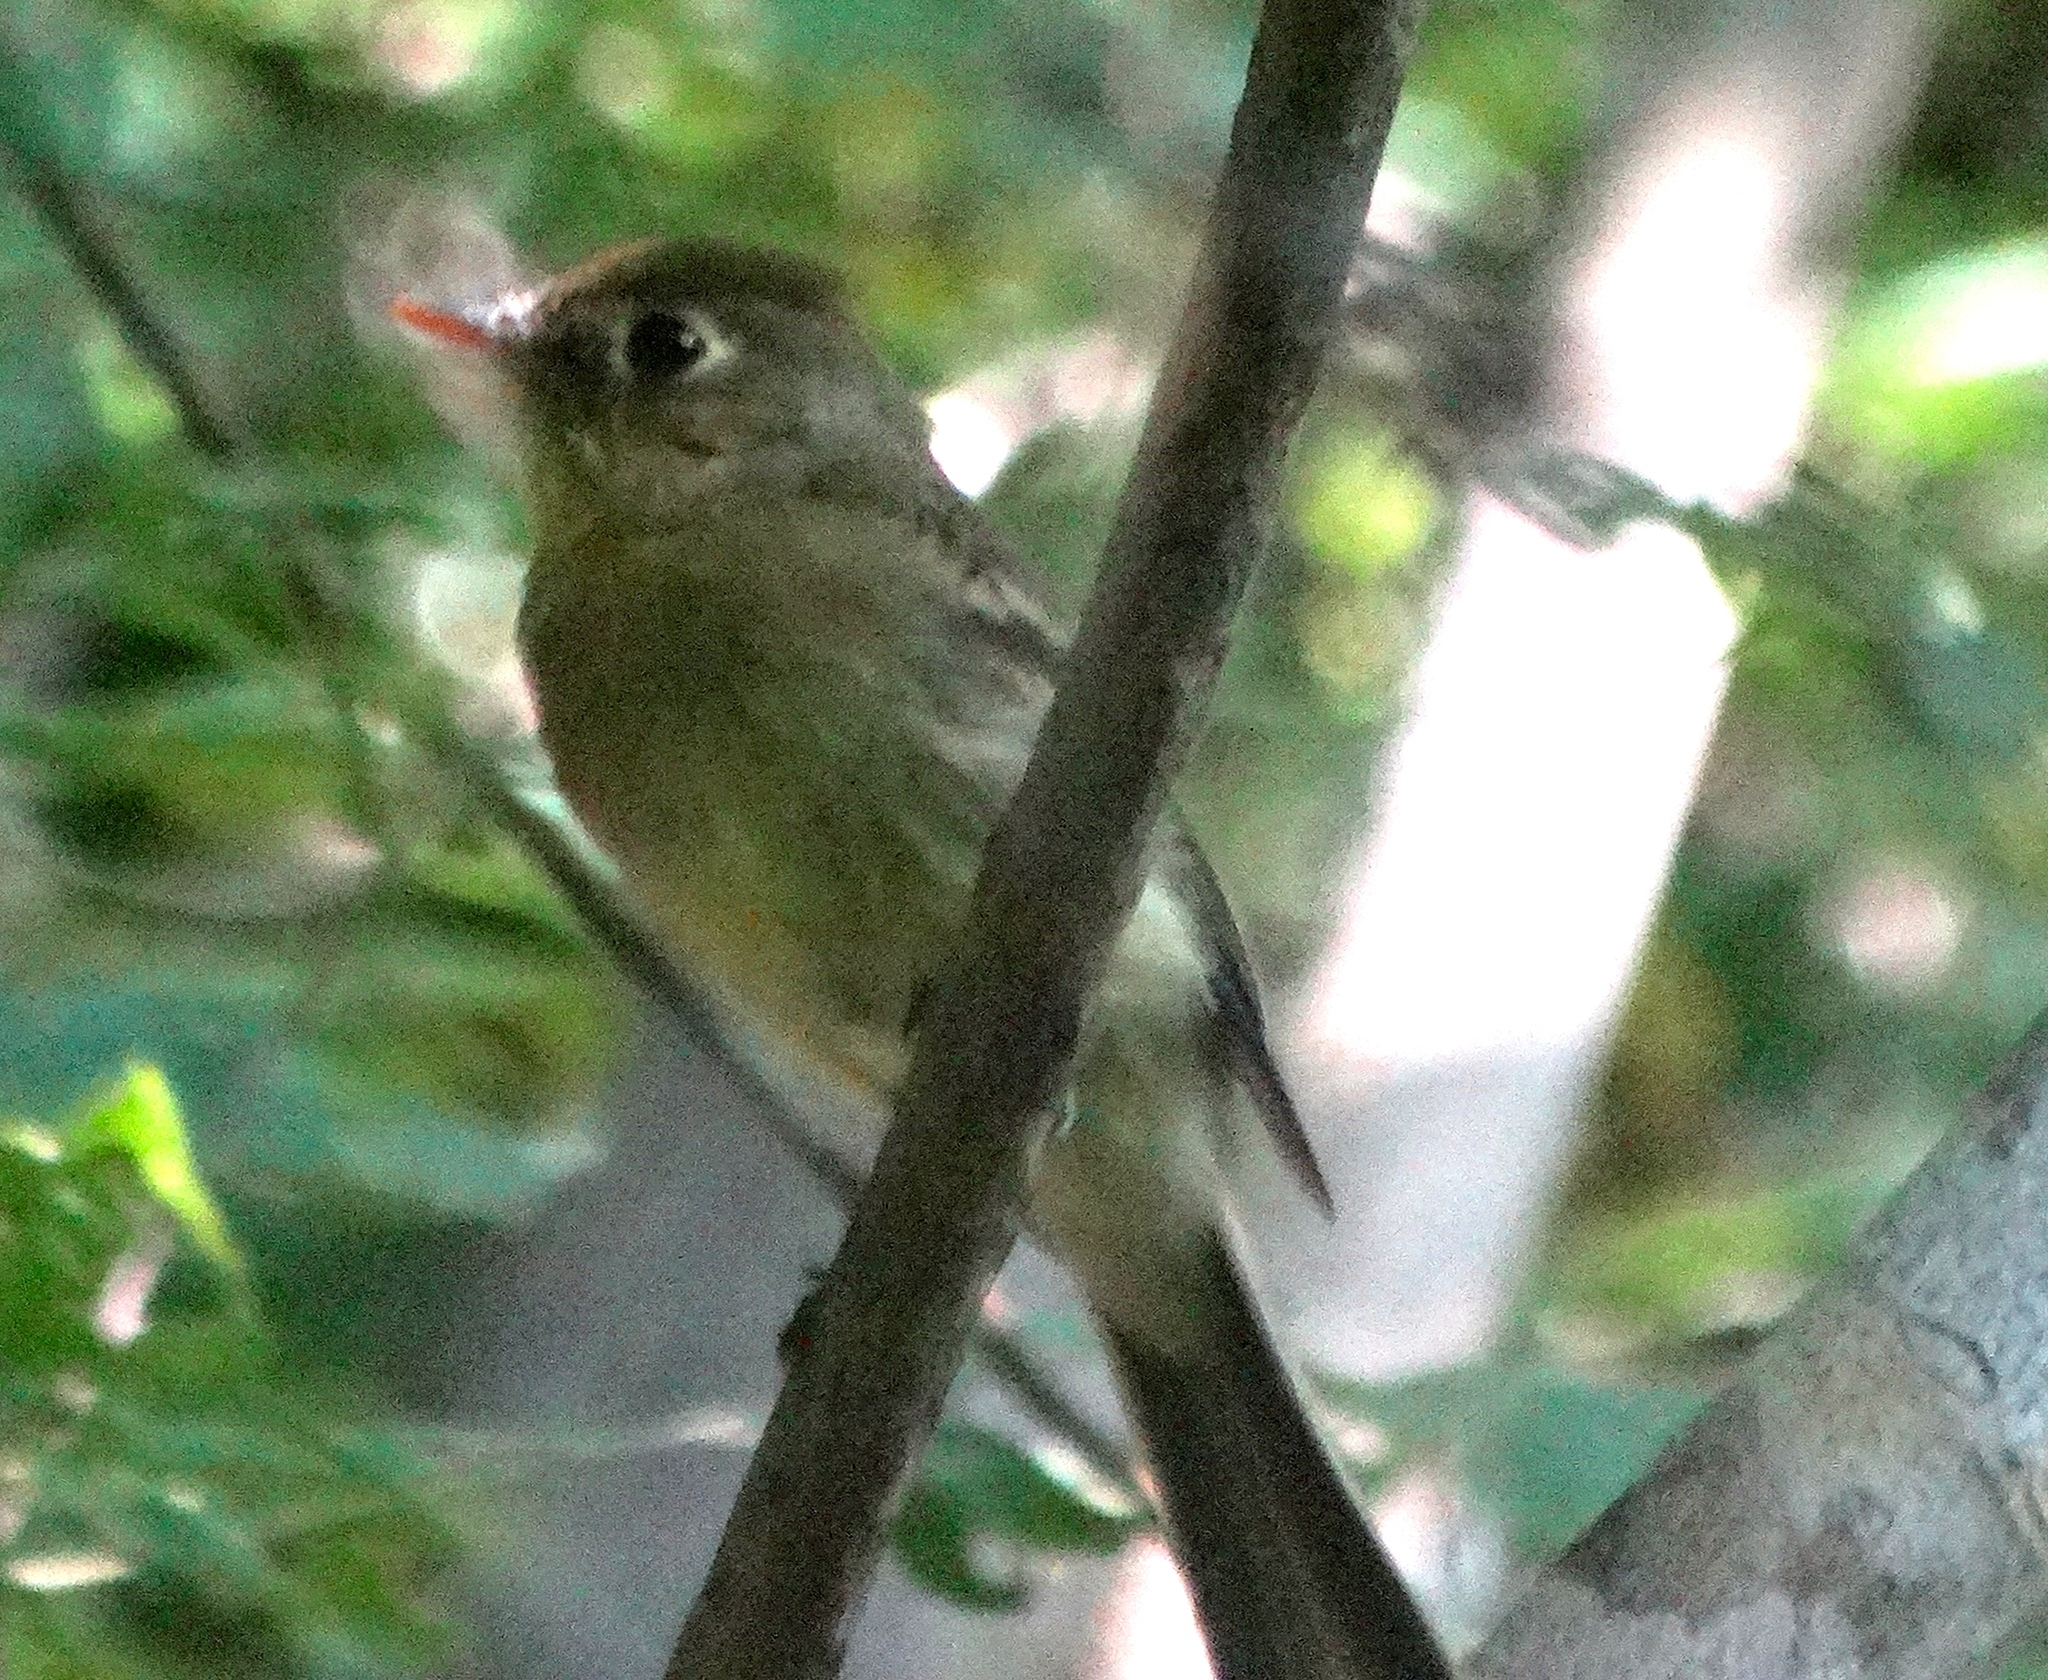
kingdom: Animalia
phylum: Chordata
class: Aves
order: Passeriformes
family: Tyrannidae
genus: Empidonax
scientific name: Empidonax
